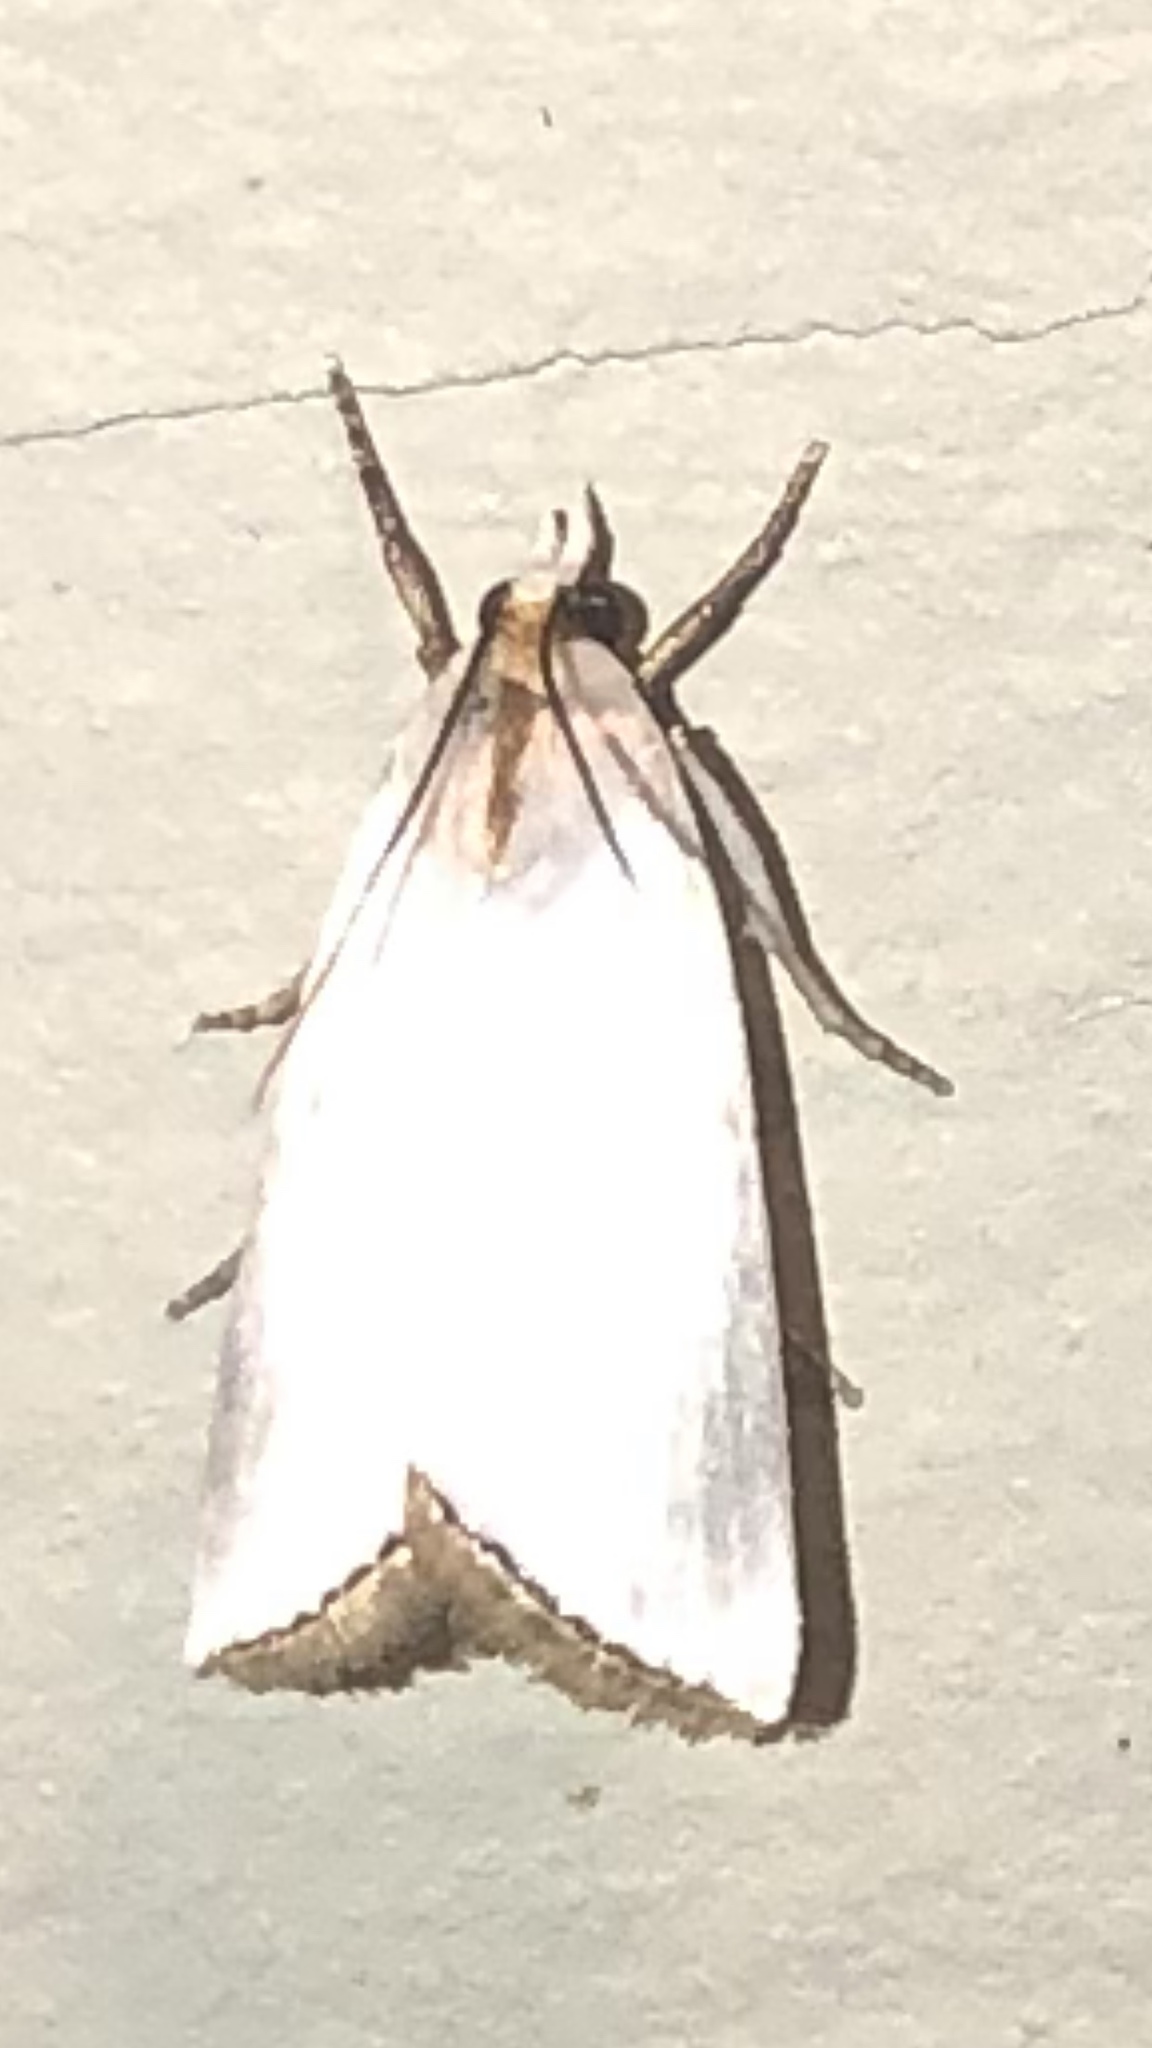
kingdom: Animalia
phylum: Arthropoda
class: Insecta
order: Lepidoptera
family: Crambidae
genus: Argyria
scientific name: Argyria nivalis
